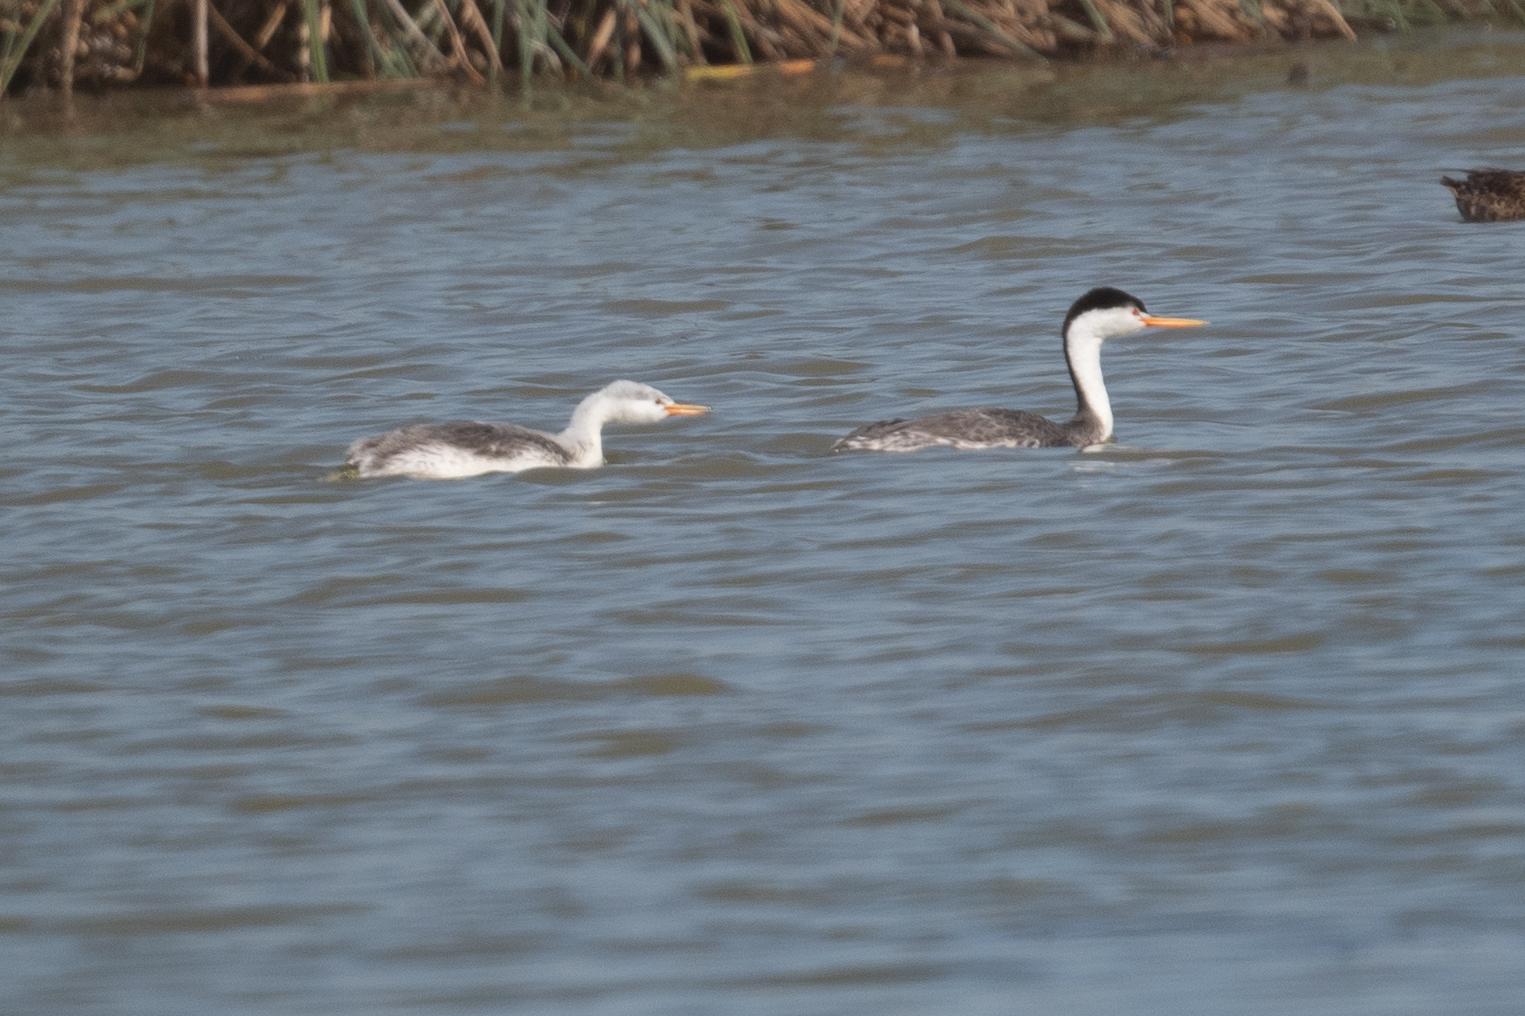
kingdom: Animalia
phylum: Chordata
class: Aves
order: Podicipediformes
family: Podicipedidae
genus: Aechmophorus
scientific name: Aechmophorus clarkii
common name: Clark's grebe
